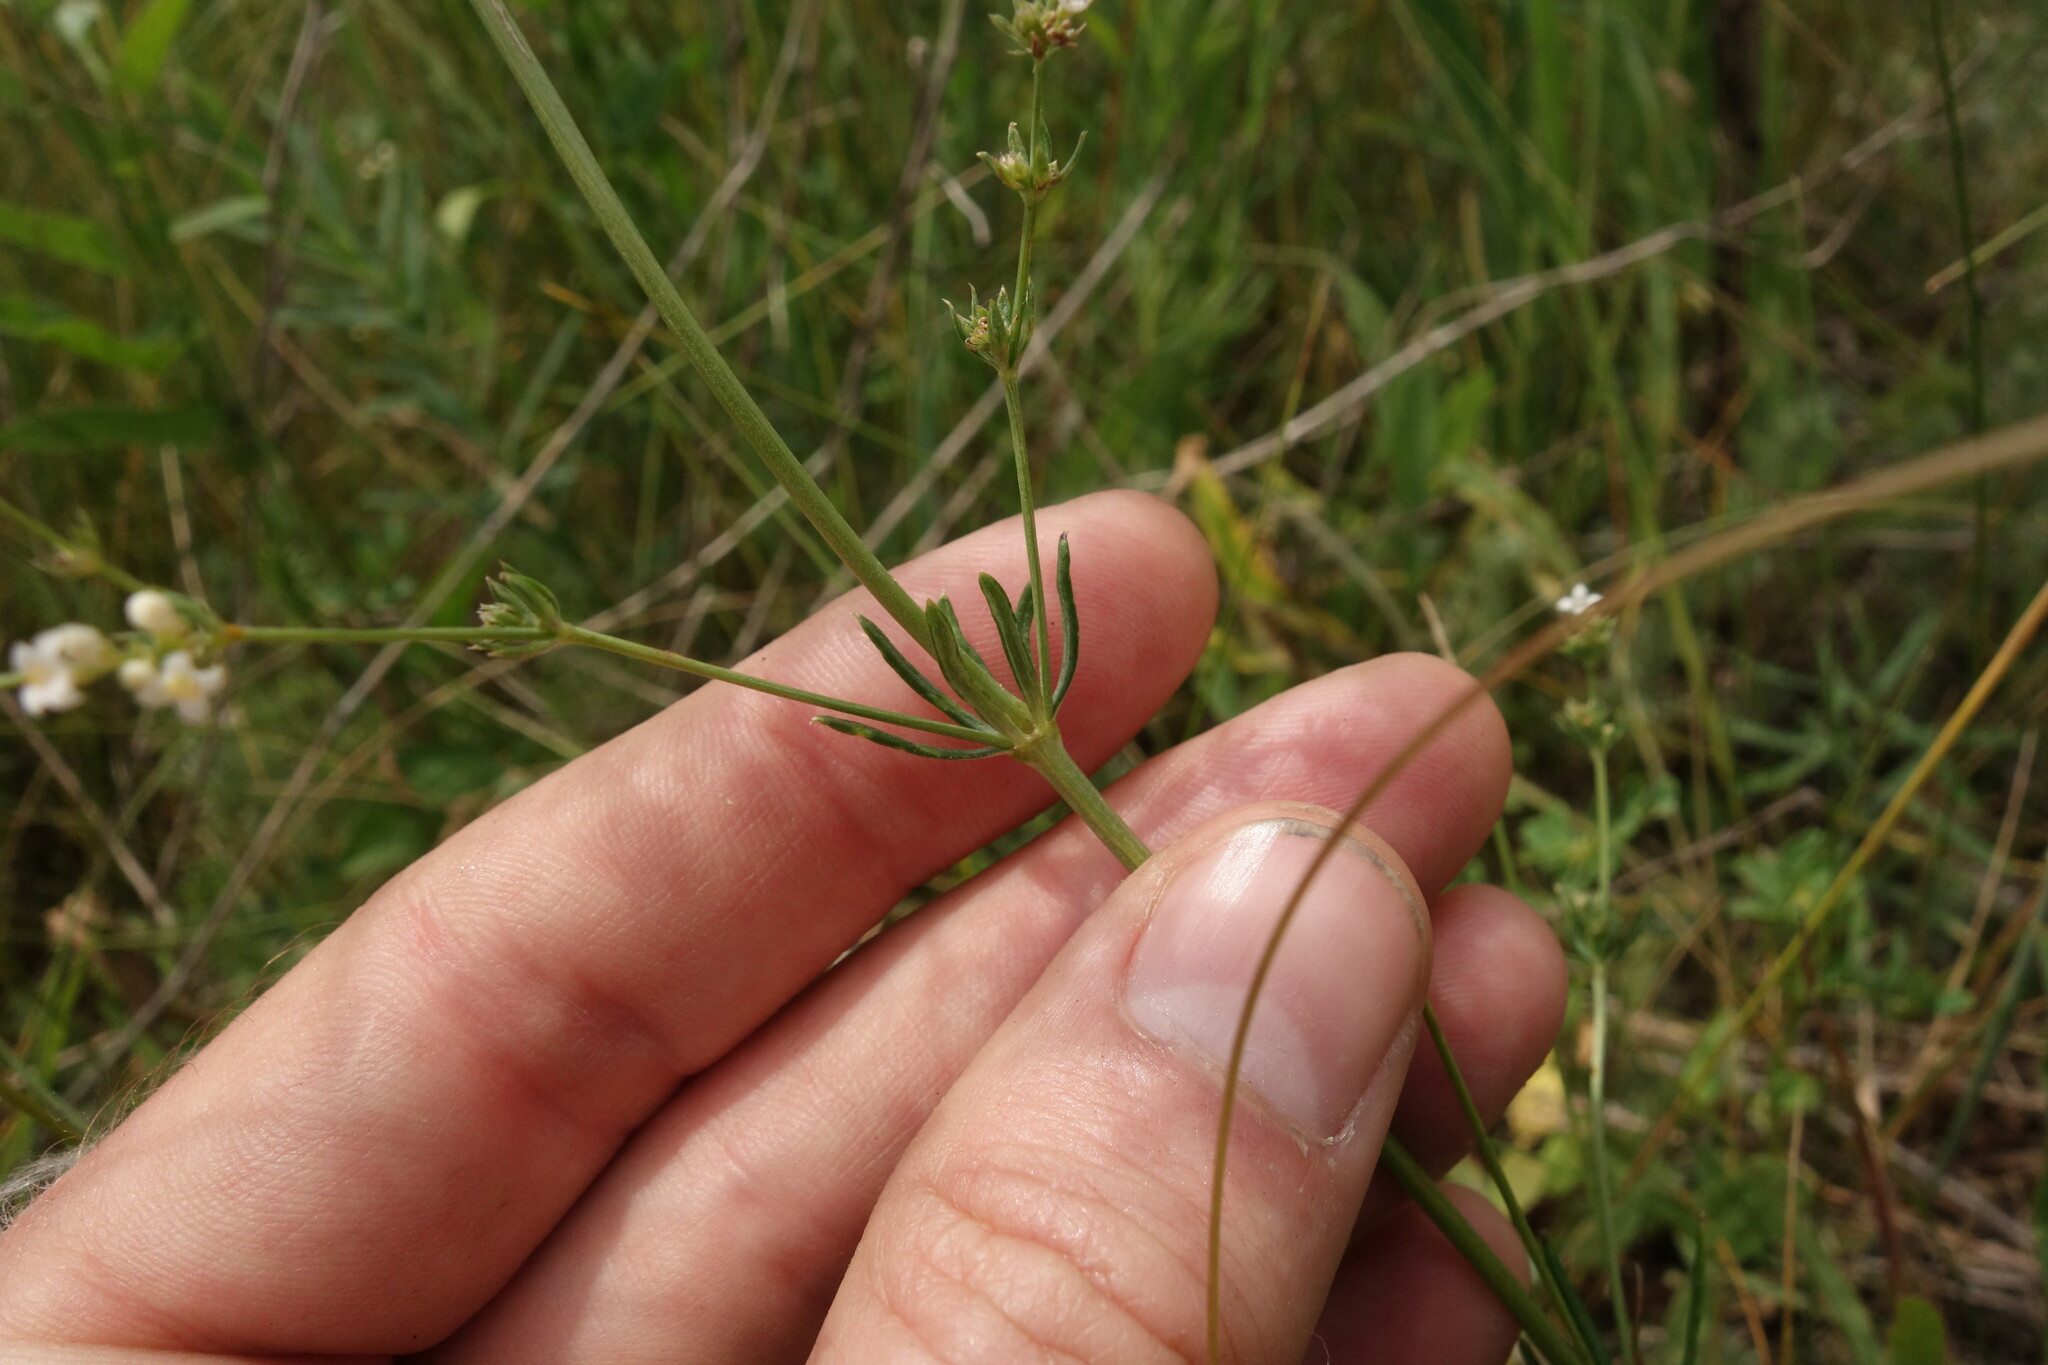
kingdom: Plantae
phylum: Tracheophyta
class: Magnoliopsida
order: Gentianales
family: Rubiaceae
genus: Galium
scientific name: Galium octonarium
